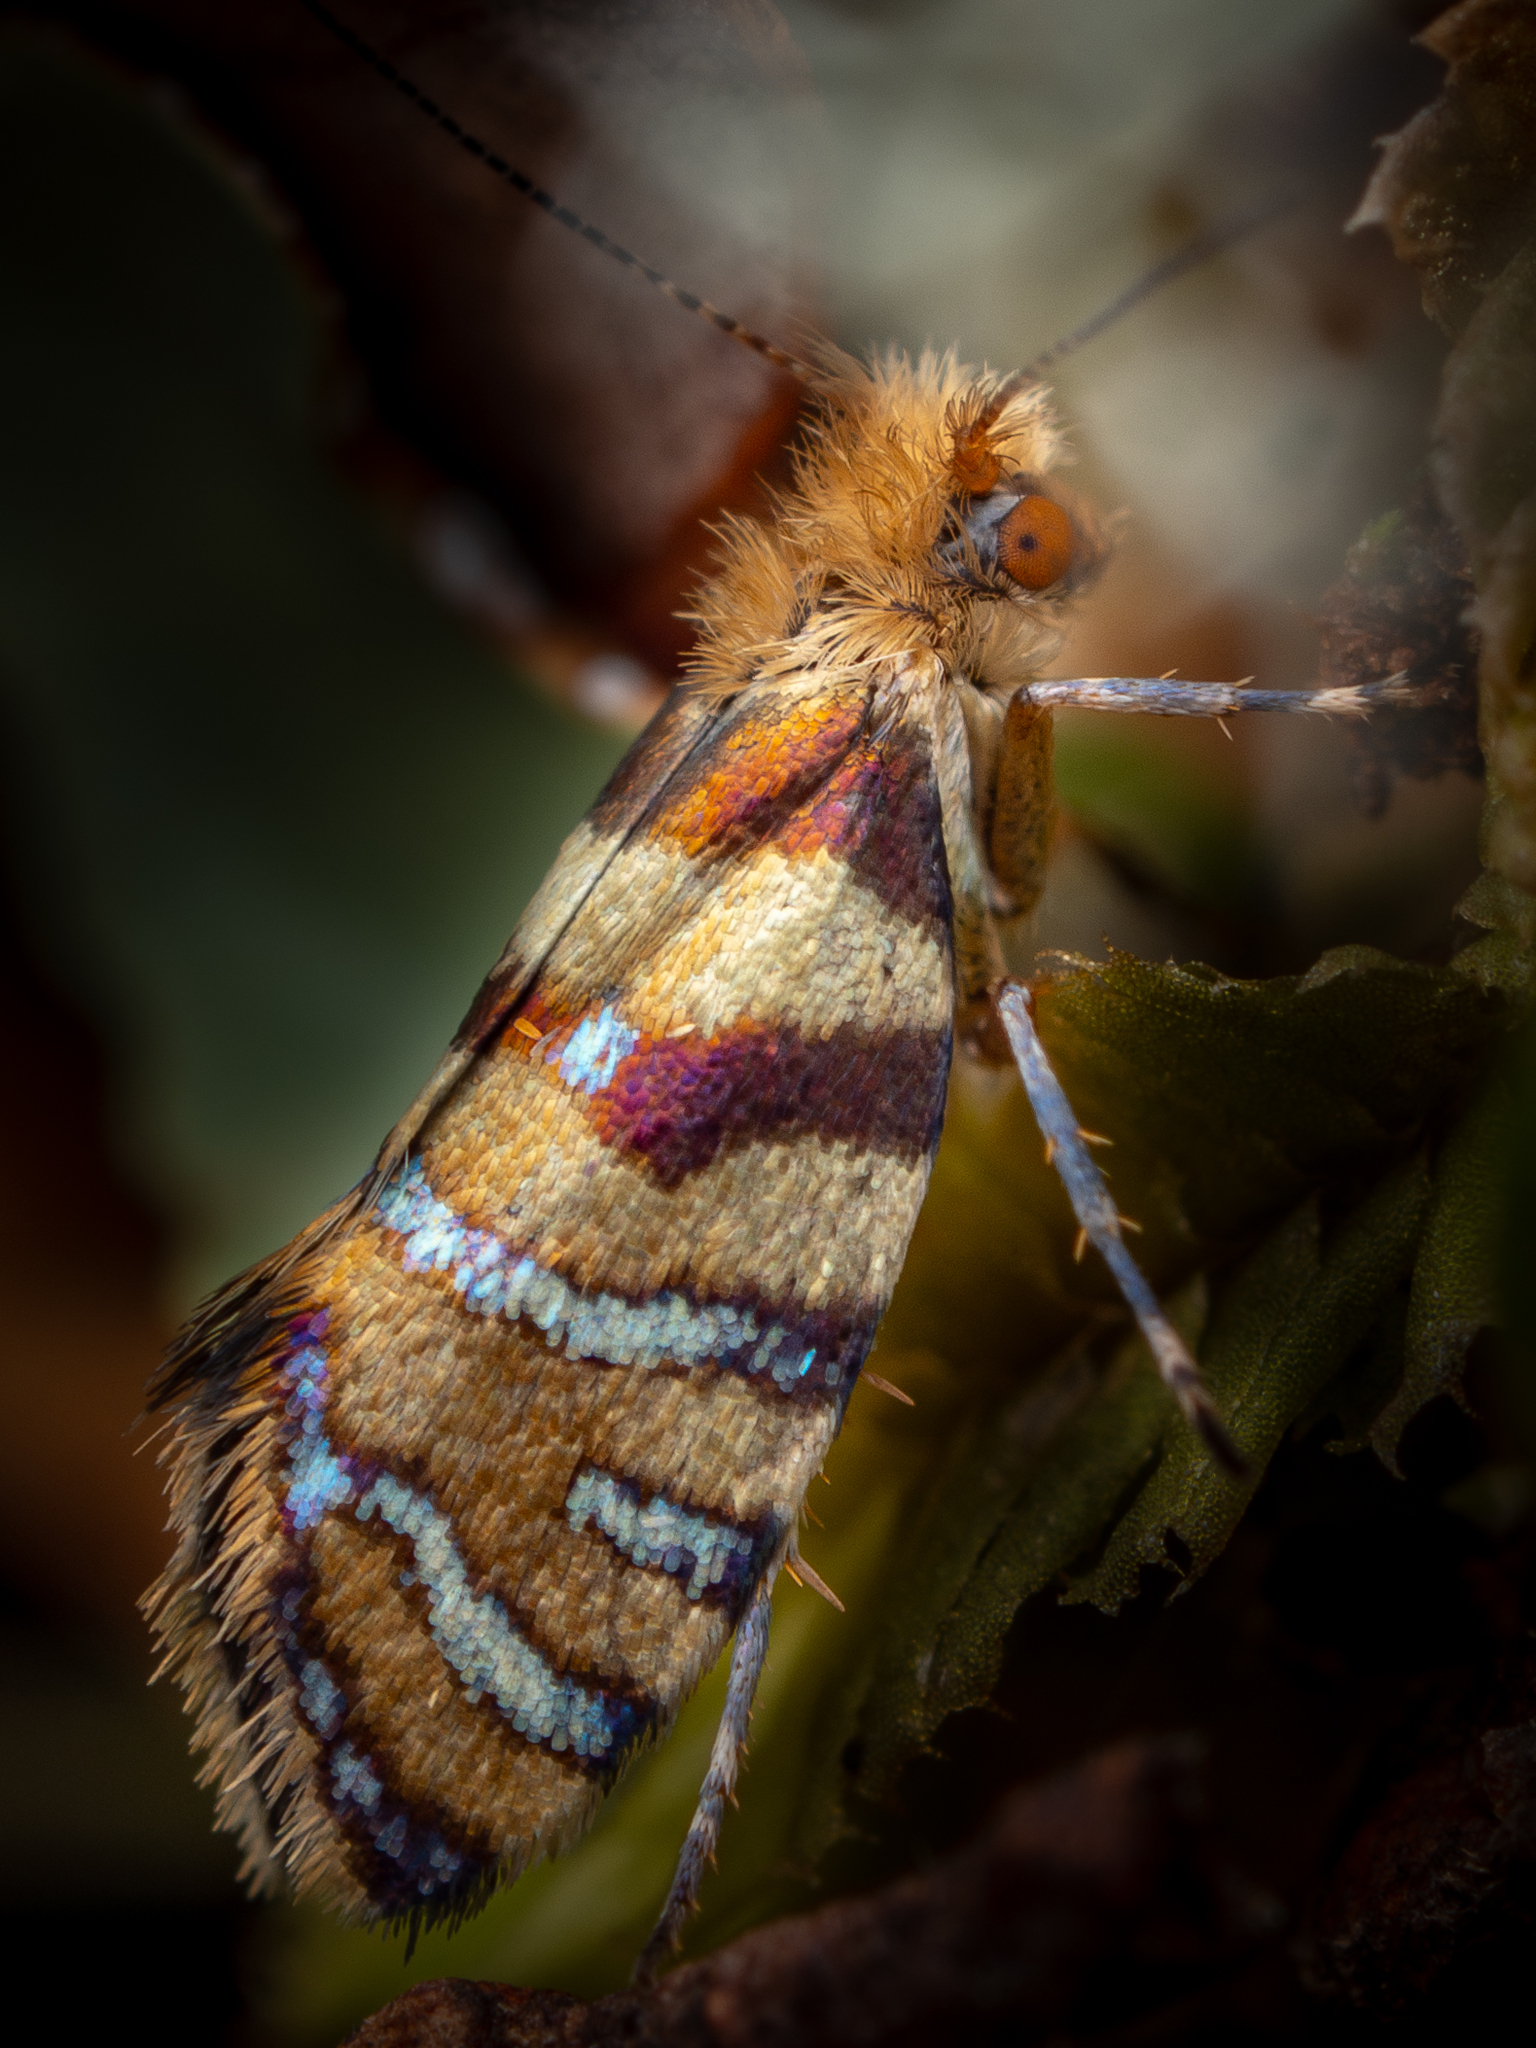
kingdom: Animalia
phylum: Arthropoda
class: Insecta
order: Lepidoptera
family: Micropterigidae
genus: Micropardalis
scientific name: Micropardalis aurella
